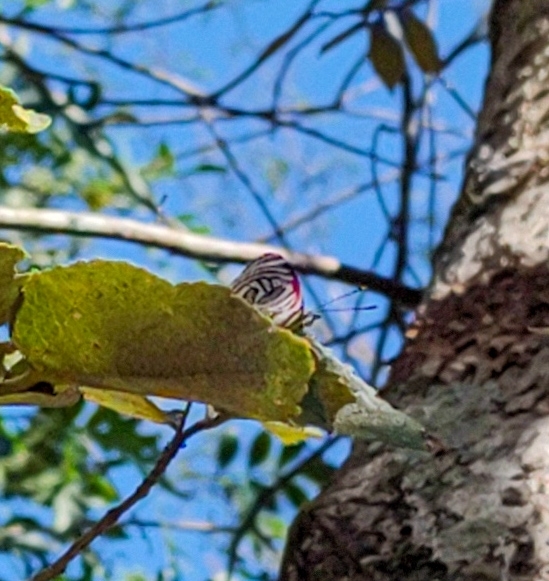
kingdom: Animalia
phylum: Arthropoda
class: Insecta
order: Lepidoptera
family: Nymphalidae
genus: Diaethria
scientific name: Diaethria candrena
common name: Number eighty
